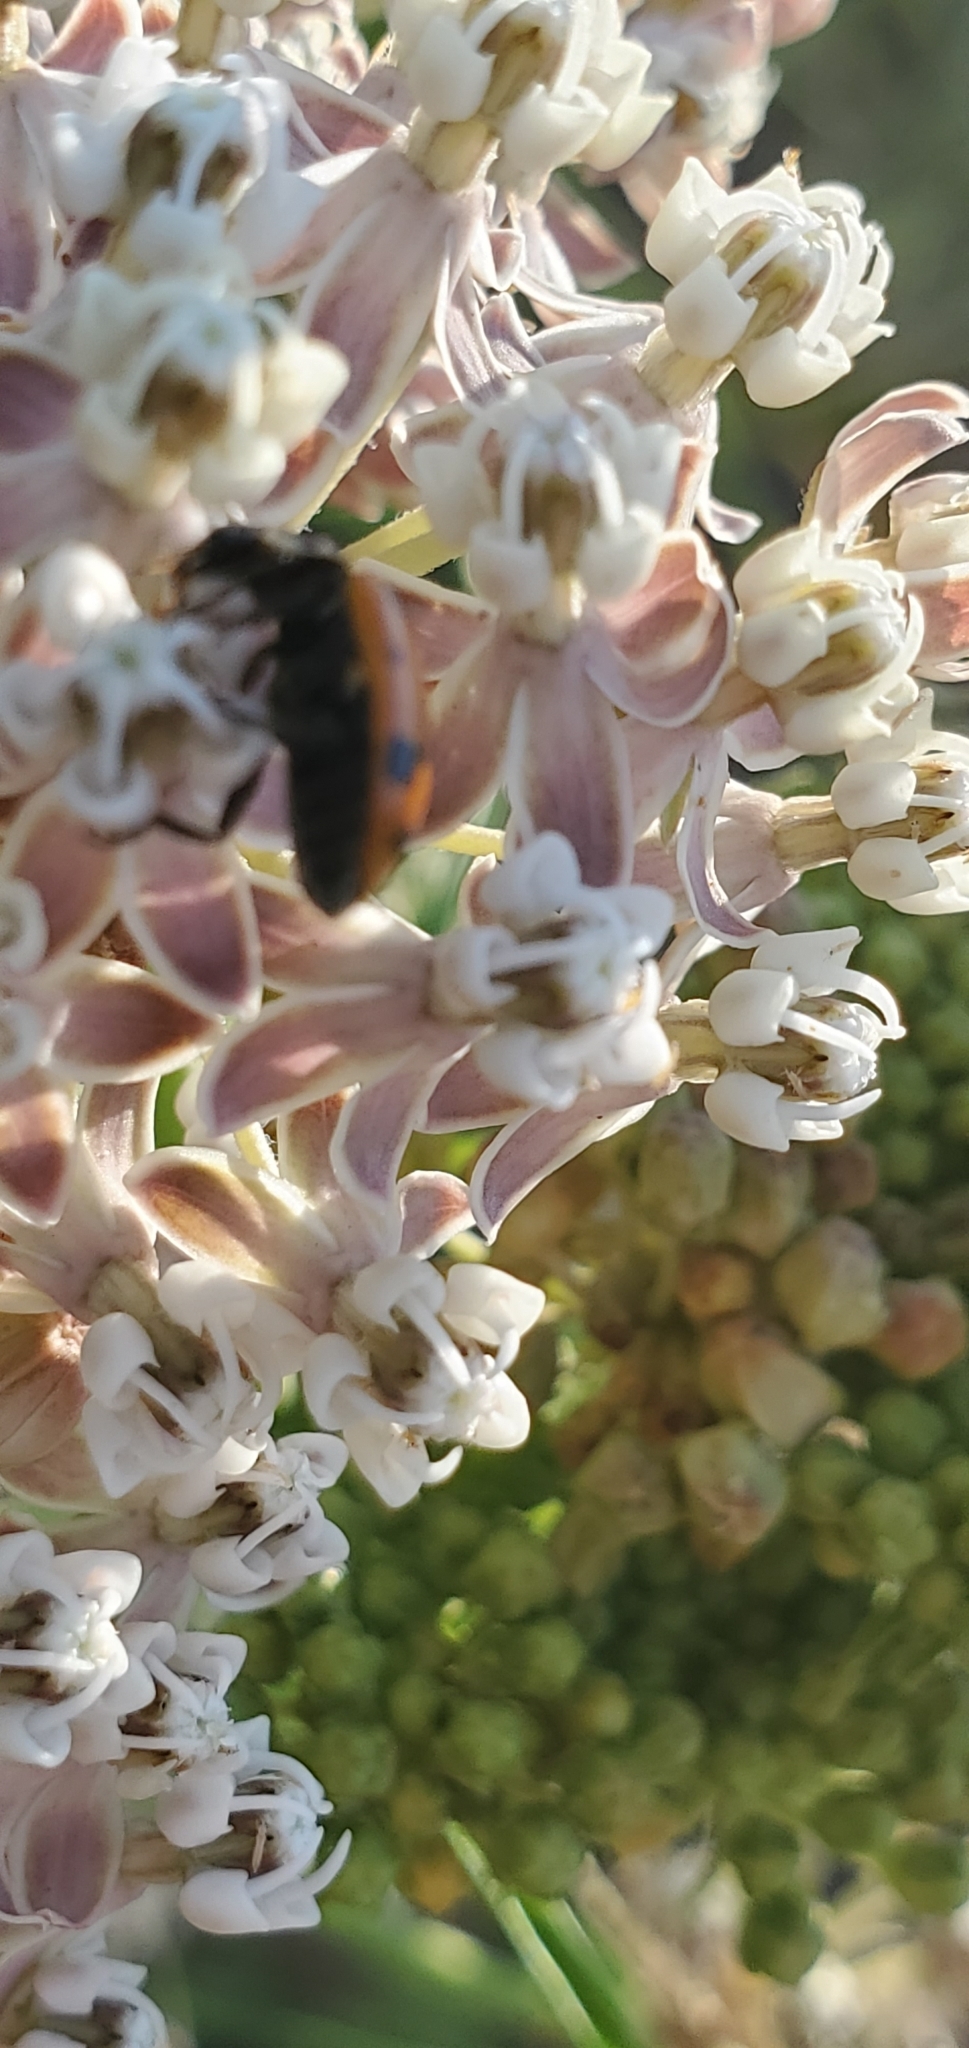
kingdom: Plantae
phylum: Tracheophyta
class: Magnoliopsida
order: Gentianales
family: Apocynaceae
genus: Asclepias
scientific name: Asclepias fascicularis
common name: Mexican milkweed
